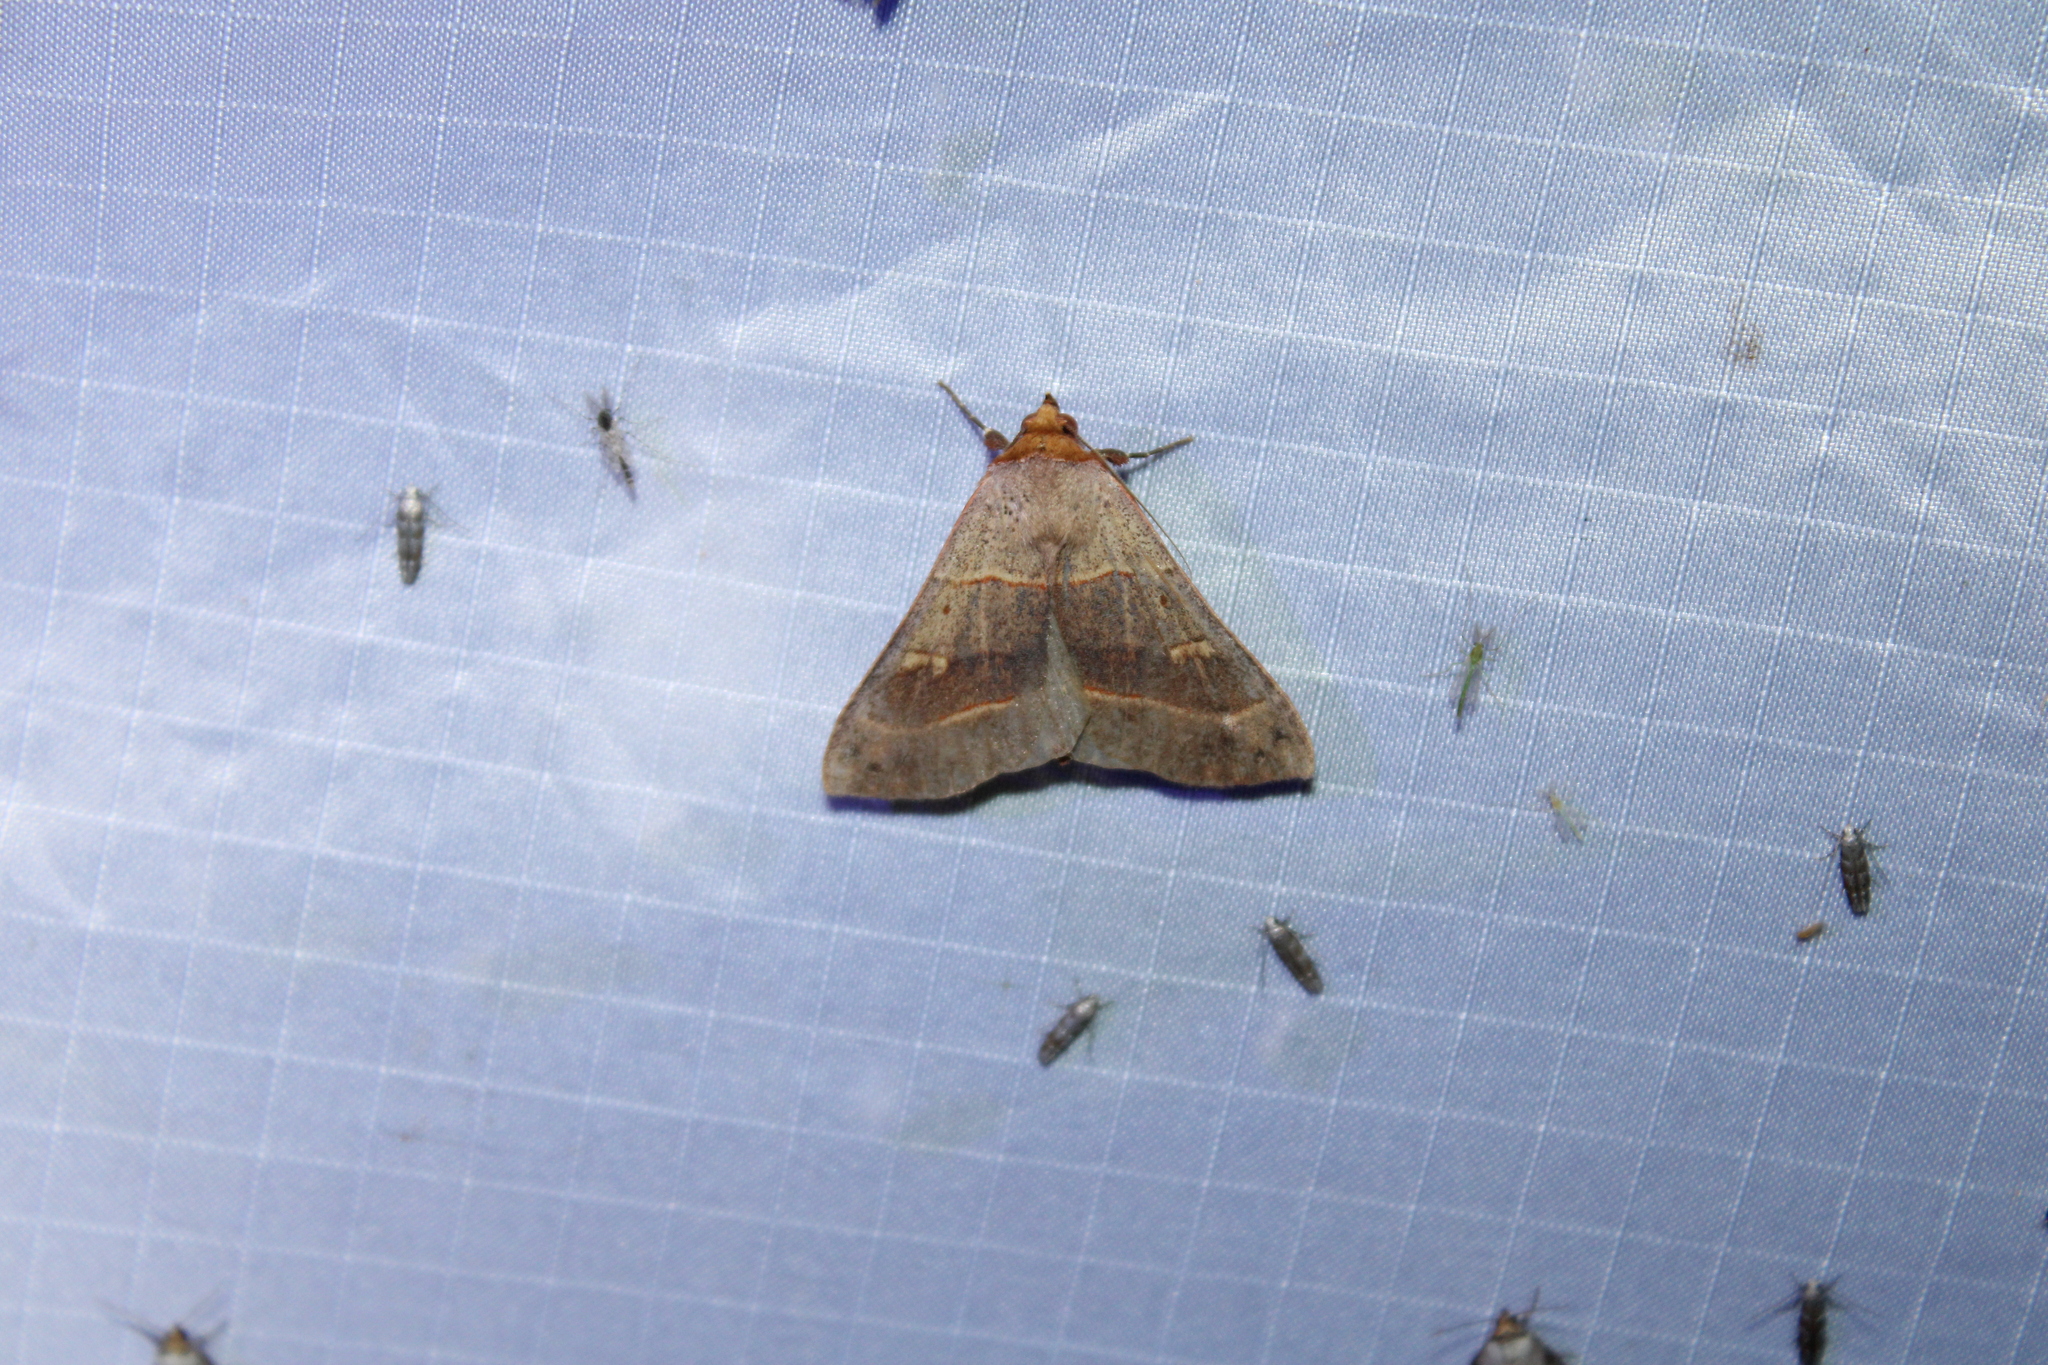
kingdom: Animalia
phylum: Arthropoda
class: Insecta
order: Lepidoptera
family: Erebidae
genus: Panopoda
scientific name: Panopoda rufimargo
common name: Red-lined panopoda moth
